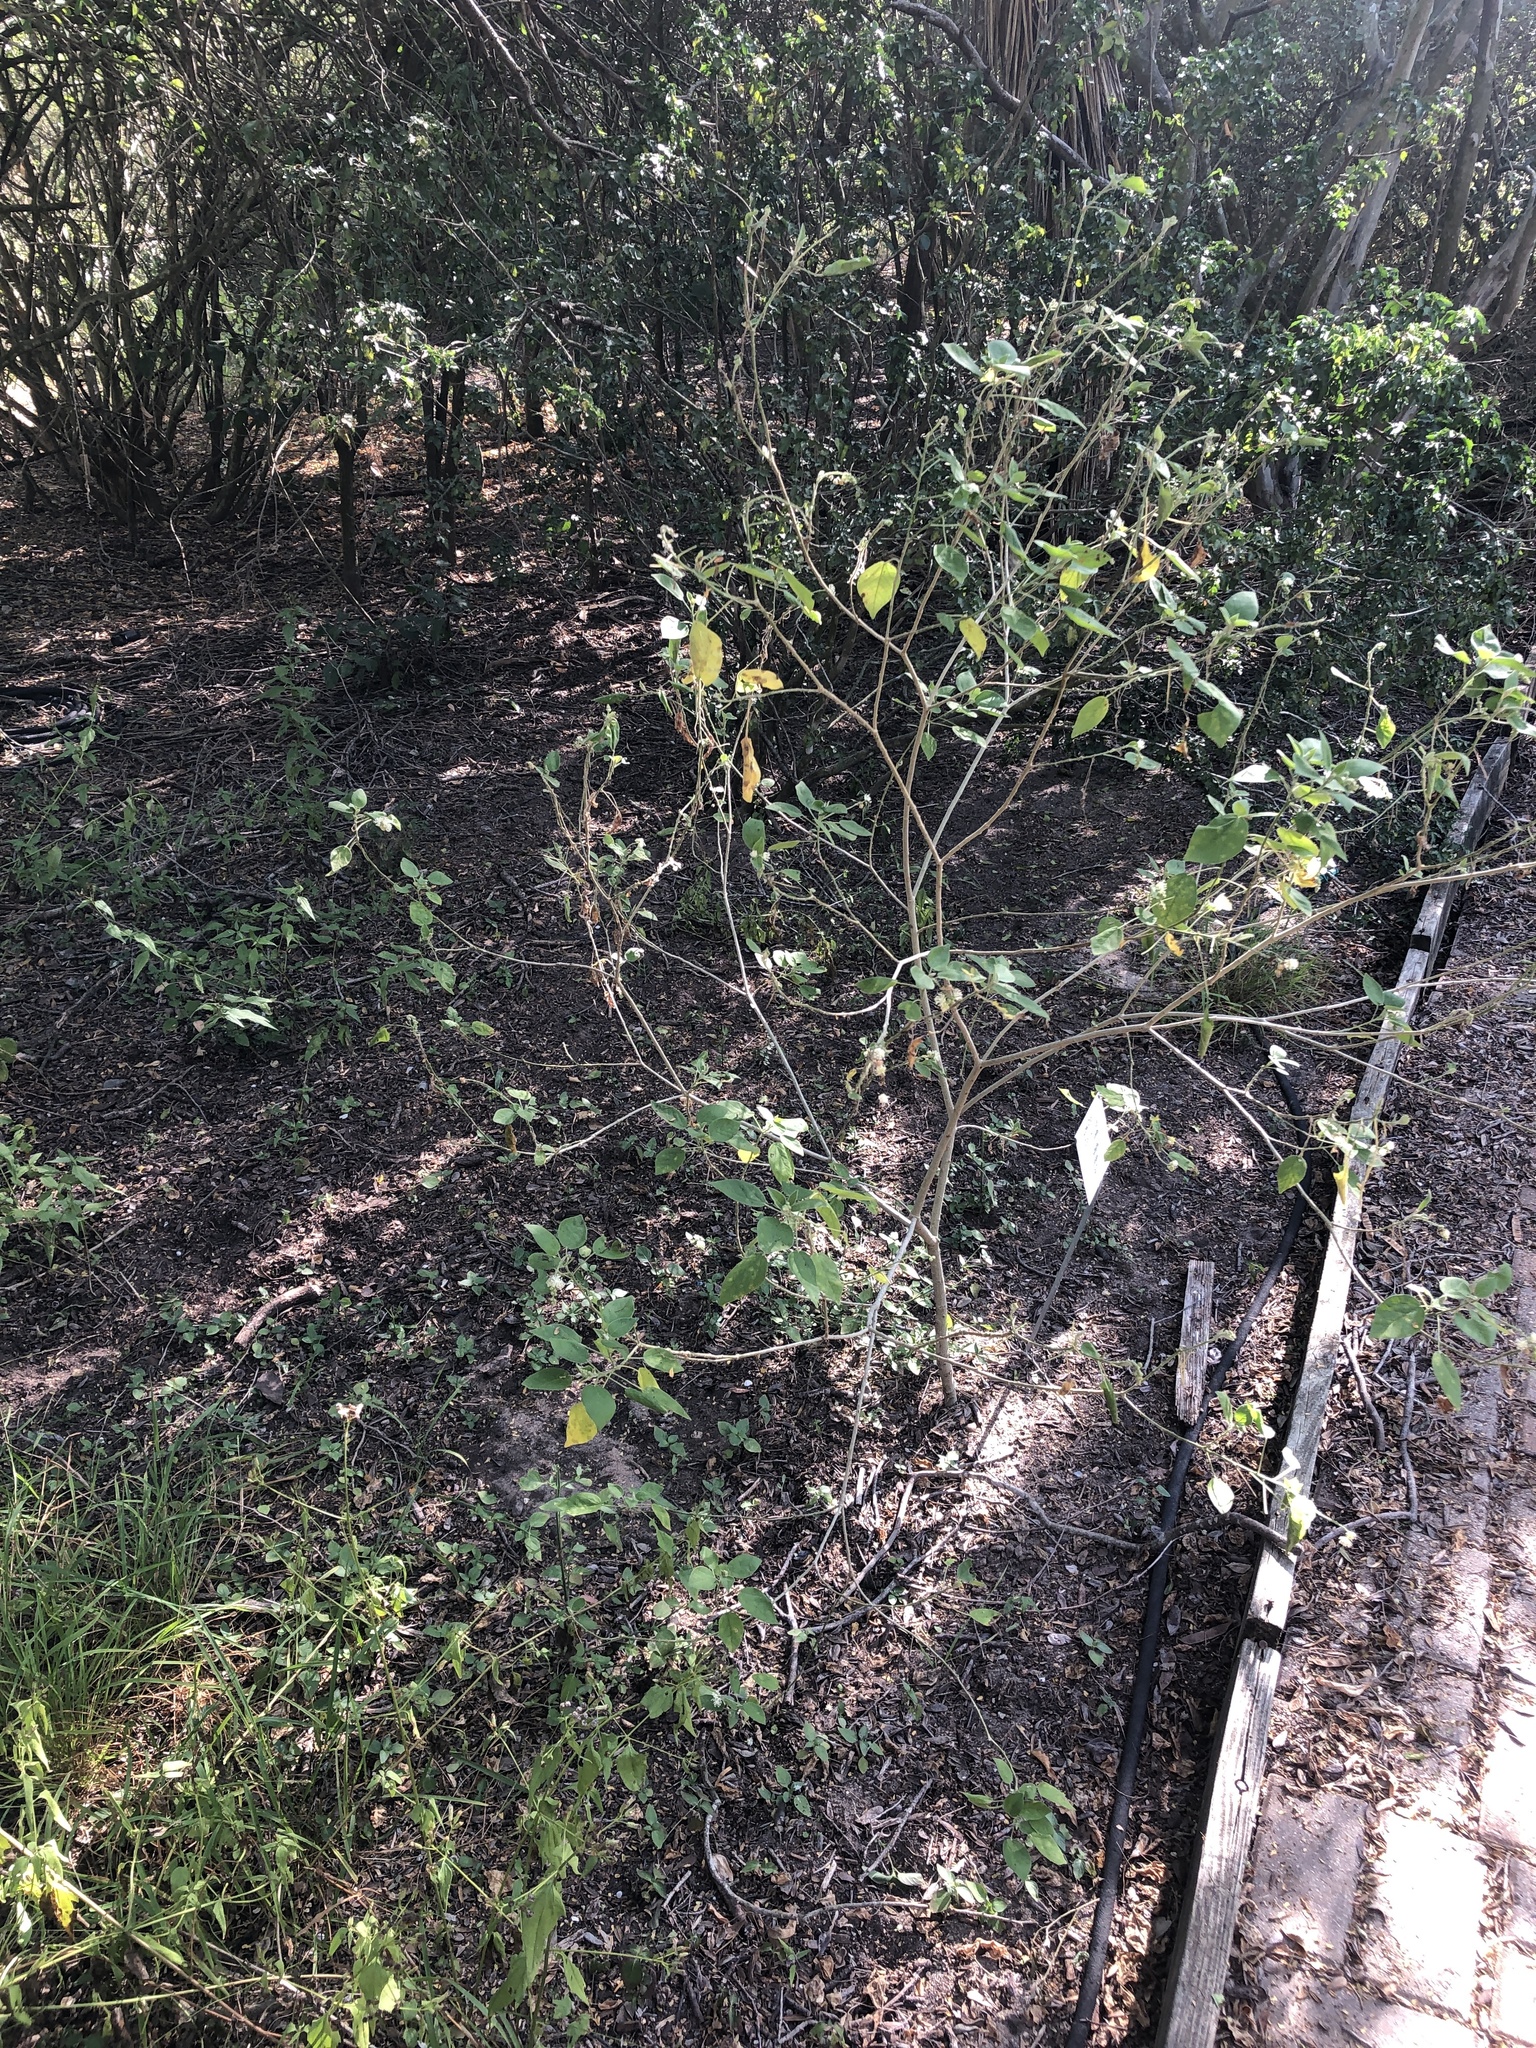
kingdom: Plantae
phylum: Tracheophyta
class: Magnoliopsida
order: Malpighiales
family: Euphorbiaceae
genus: Croton
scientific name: Croton humilis
